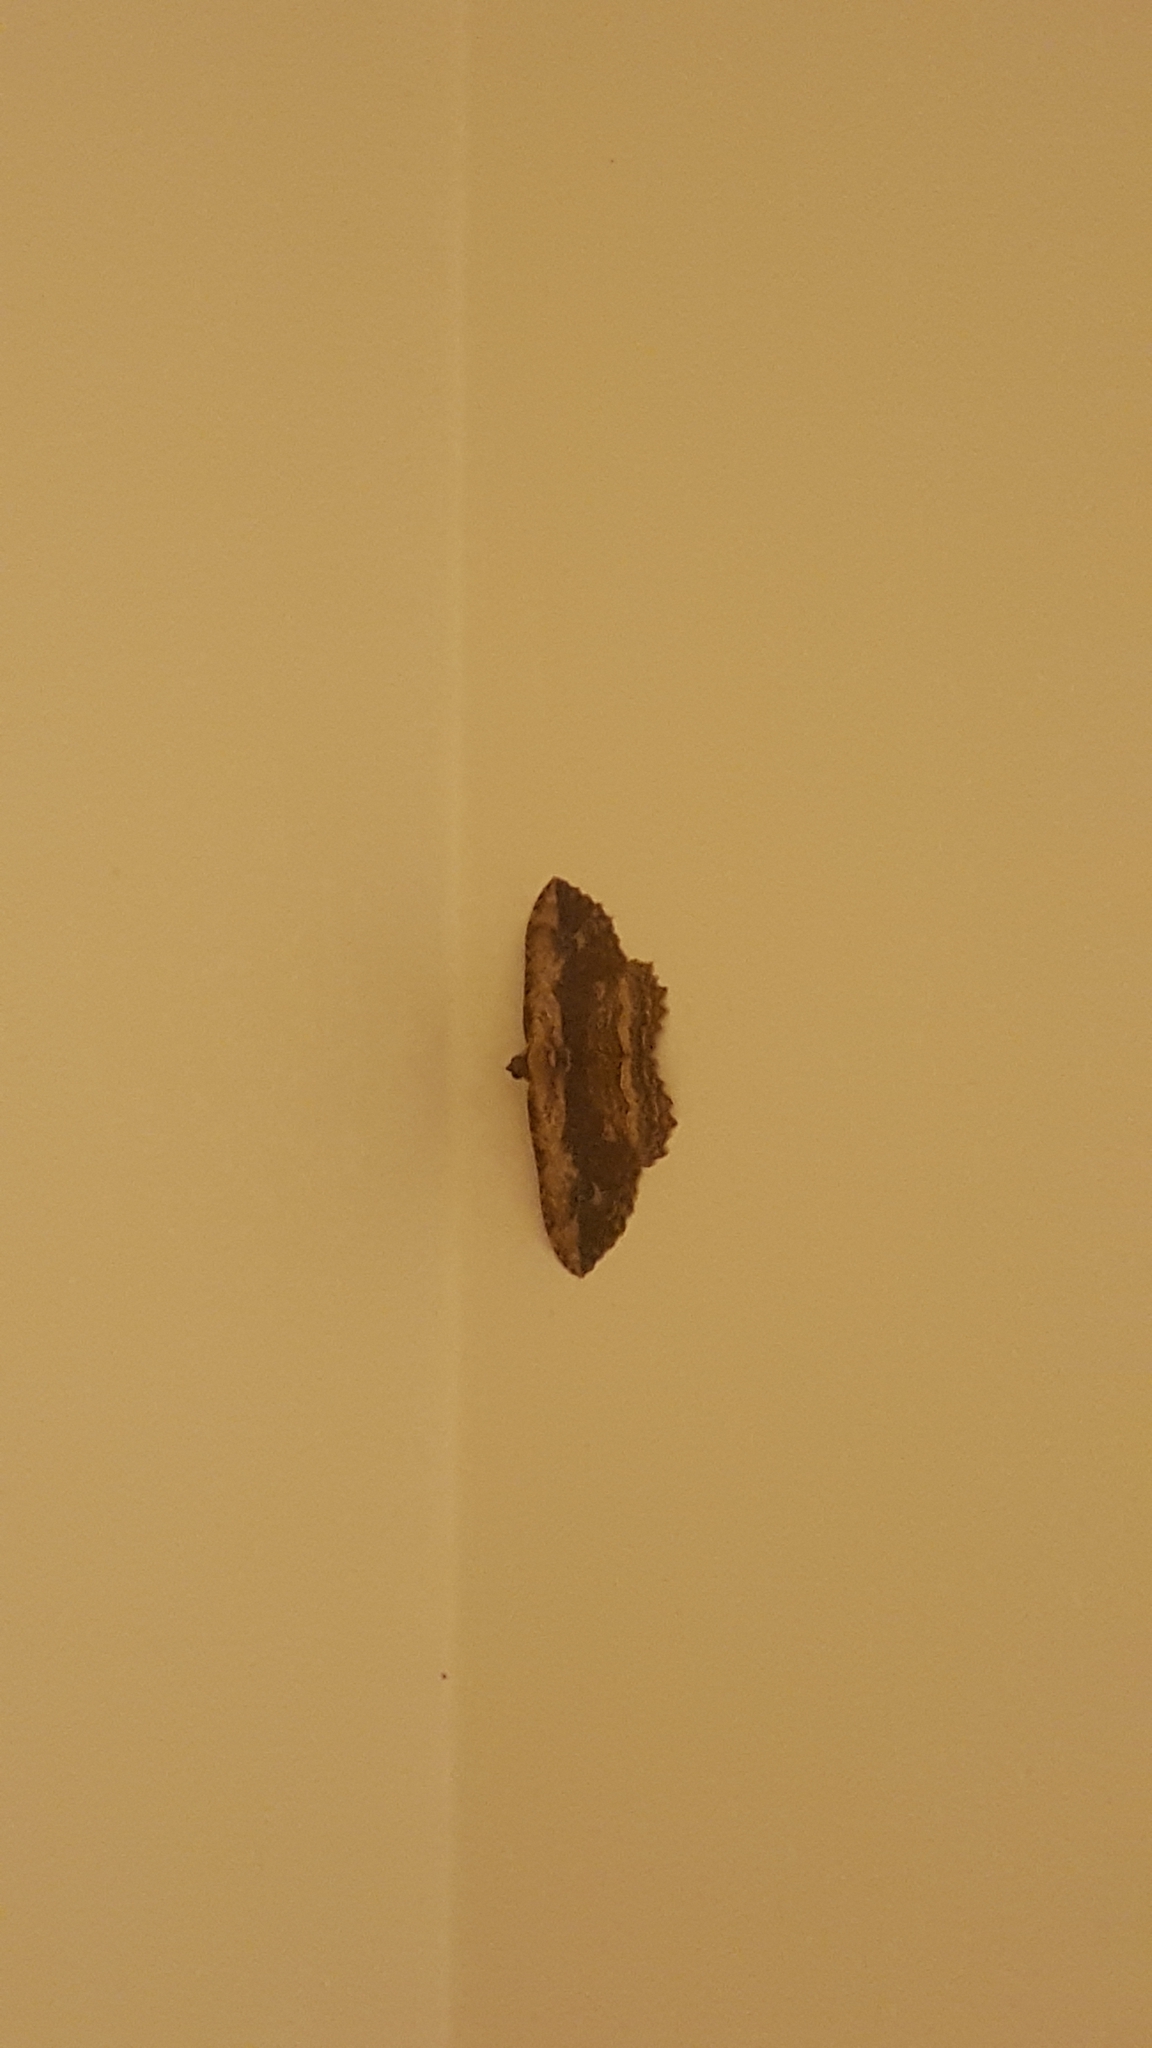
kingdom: Animalia
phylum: Arthropoda
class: Insecta
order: Lepidoptera
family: Geometridae
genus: Austrocidaria
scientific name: Austrocidaria bipartita
